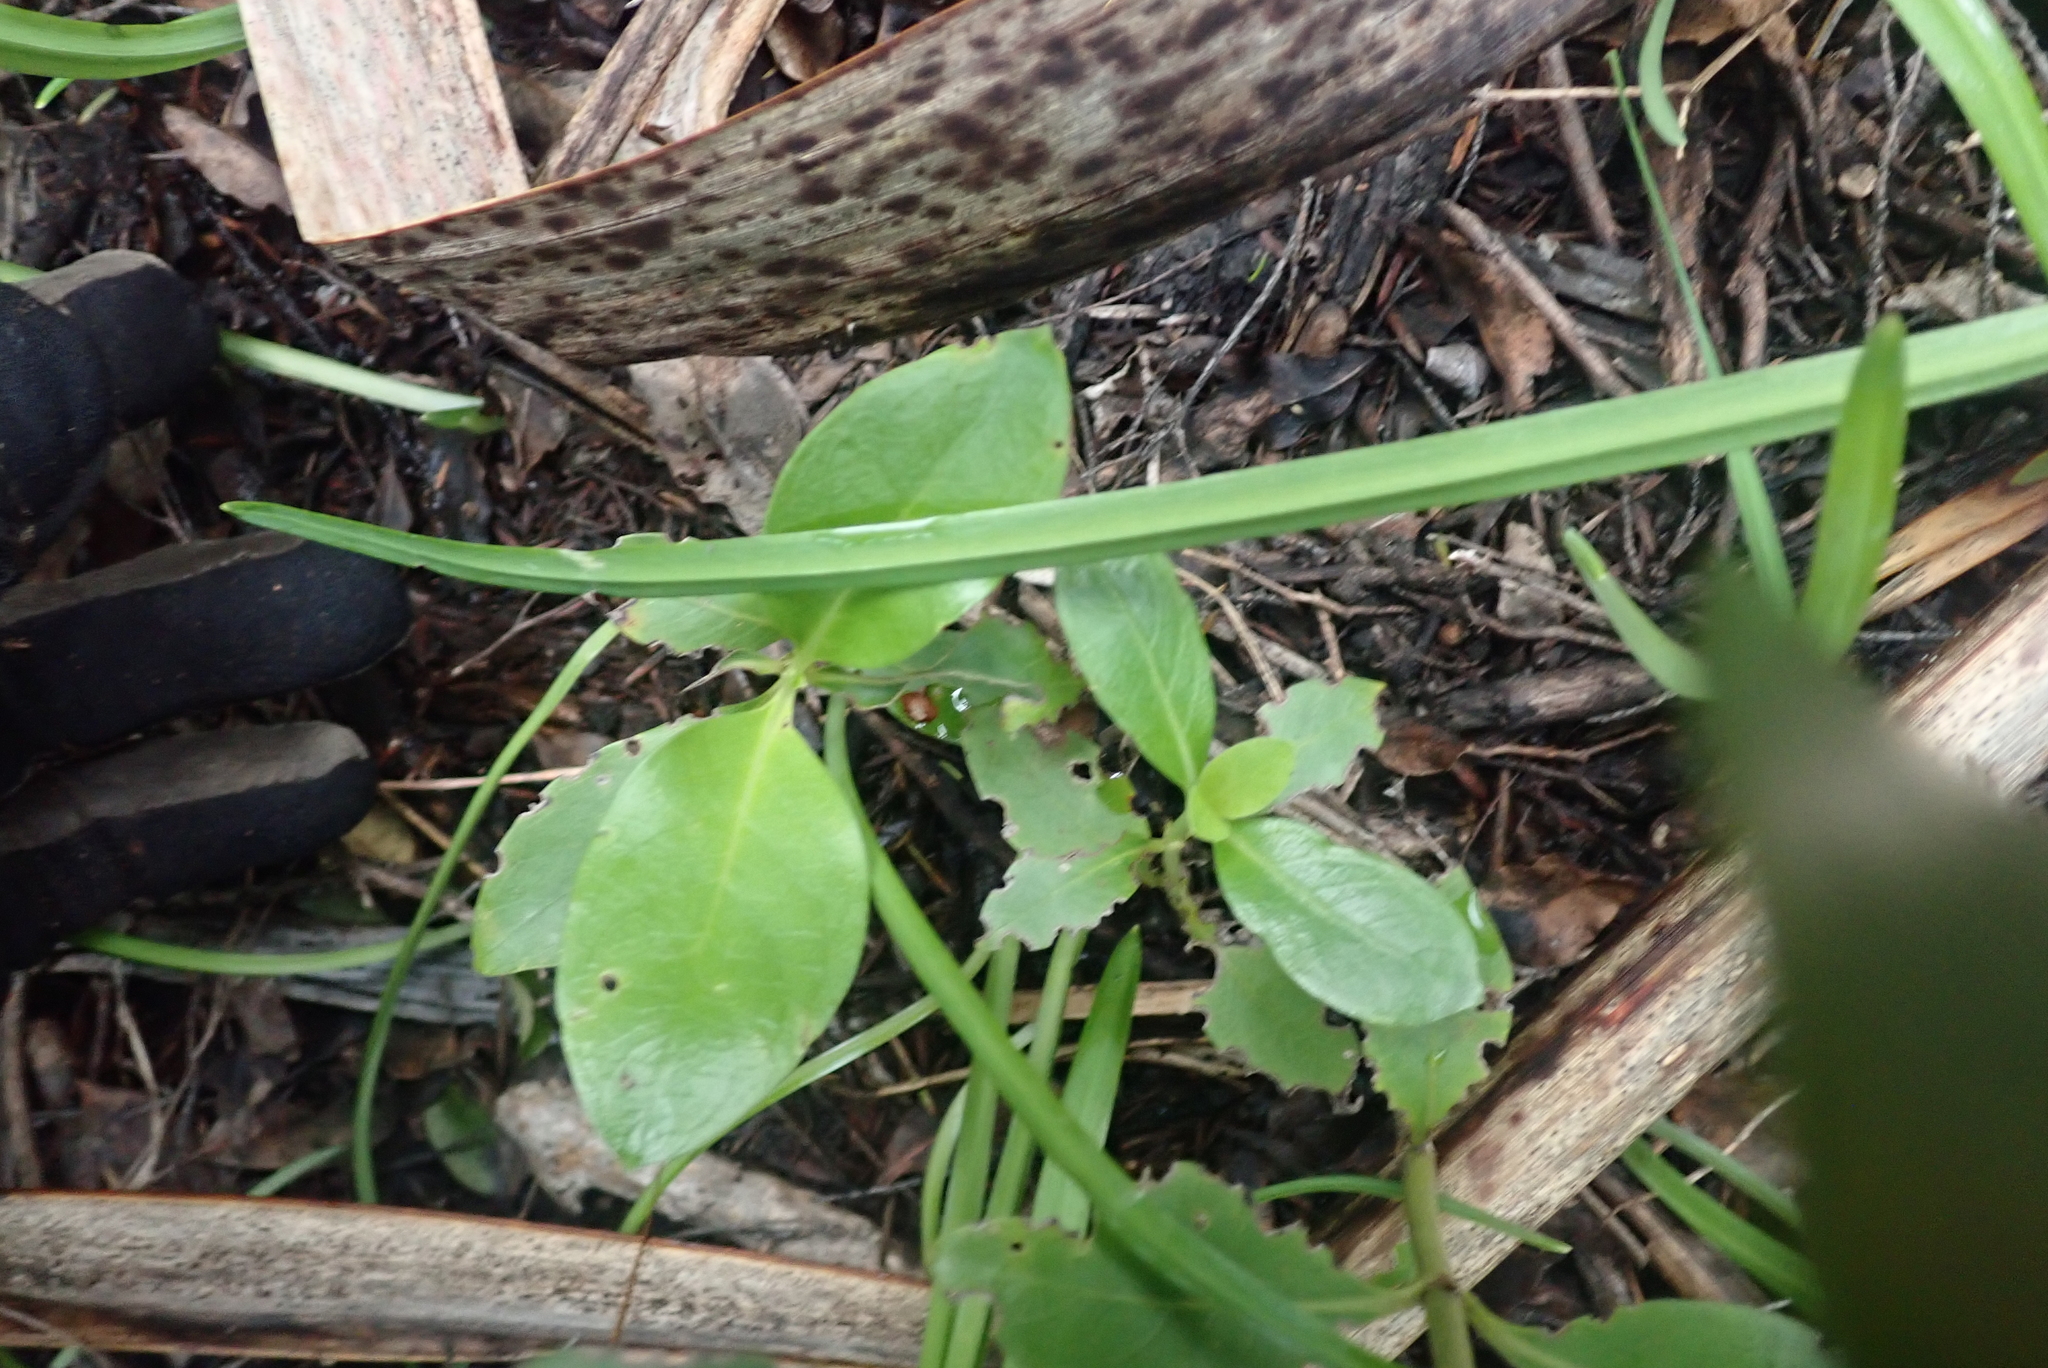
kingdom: Plantae
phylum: Tracheophyta
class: Magnoliopsida
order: Gentianales
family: Rubiaceae
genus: Coprosma
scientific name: Coprosma robusta
